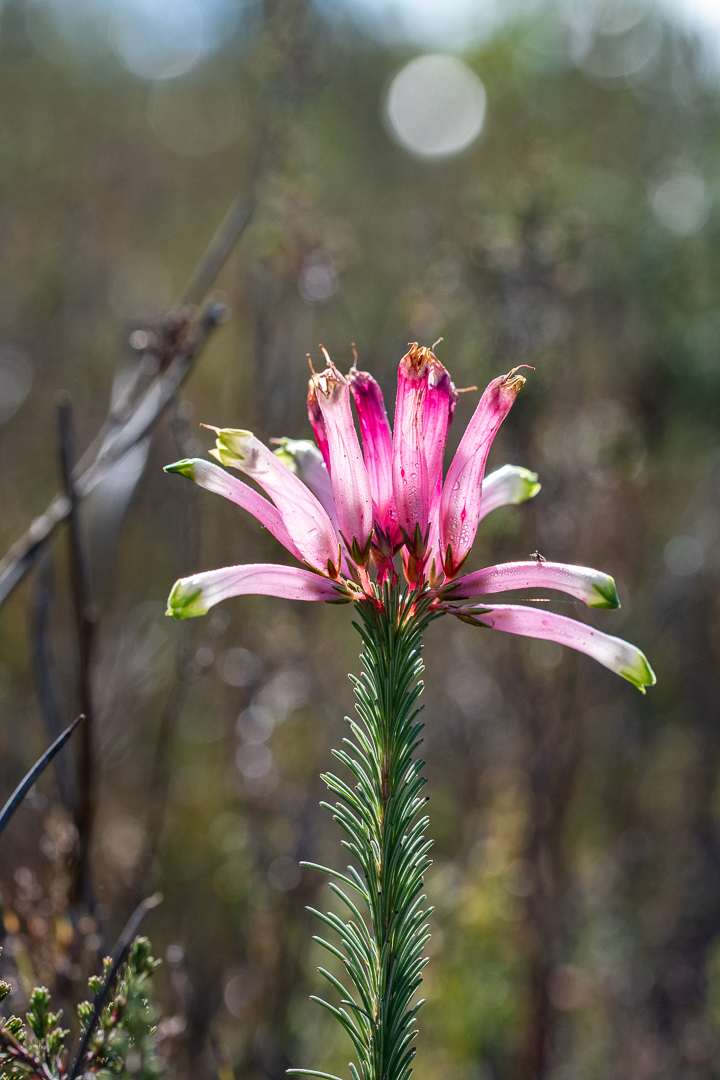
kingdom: Plantae
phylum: Tracheophyta
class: Magnoliopsida
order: Ericales
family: Ericaceae
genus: Erica
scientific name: Erica fascicularis
